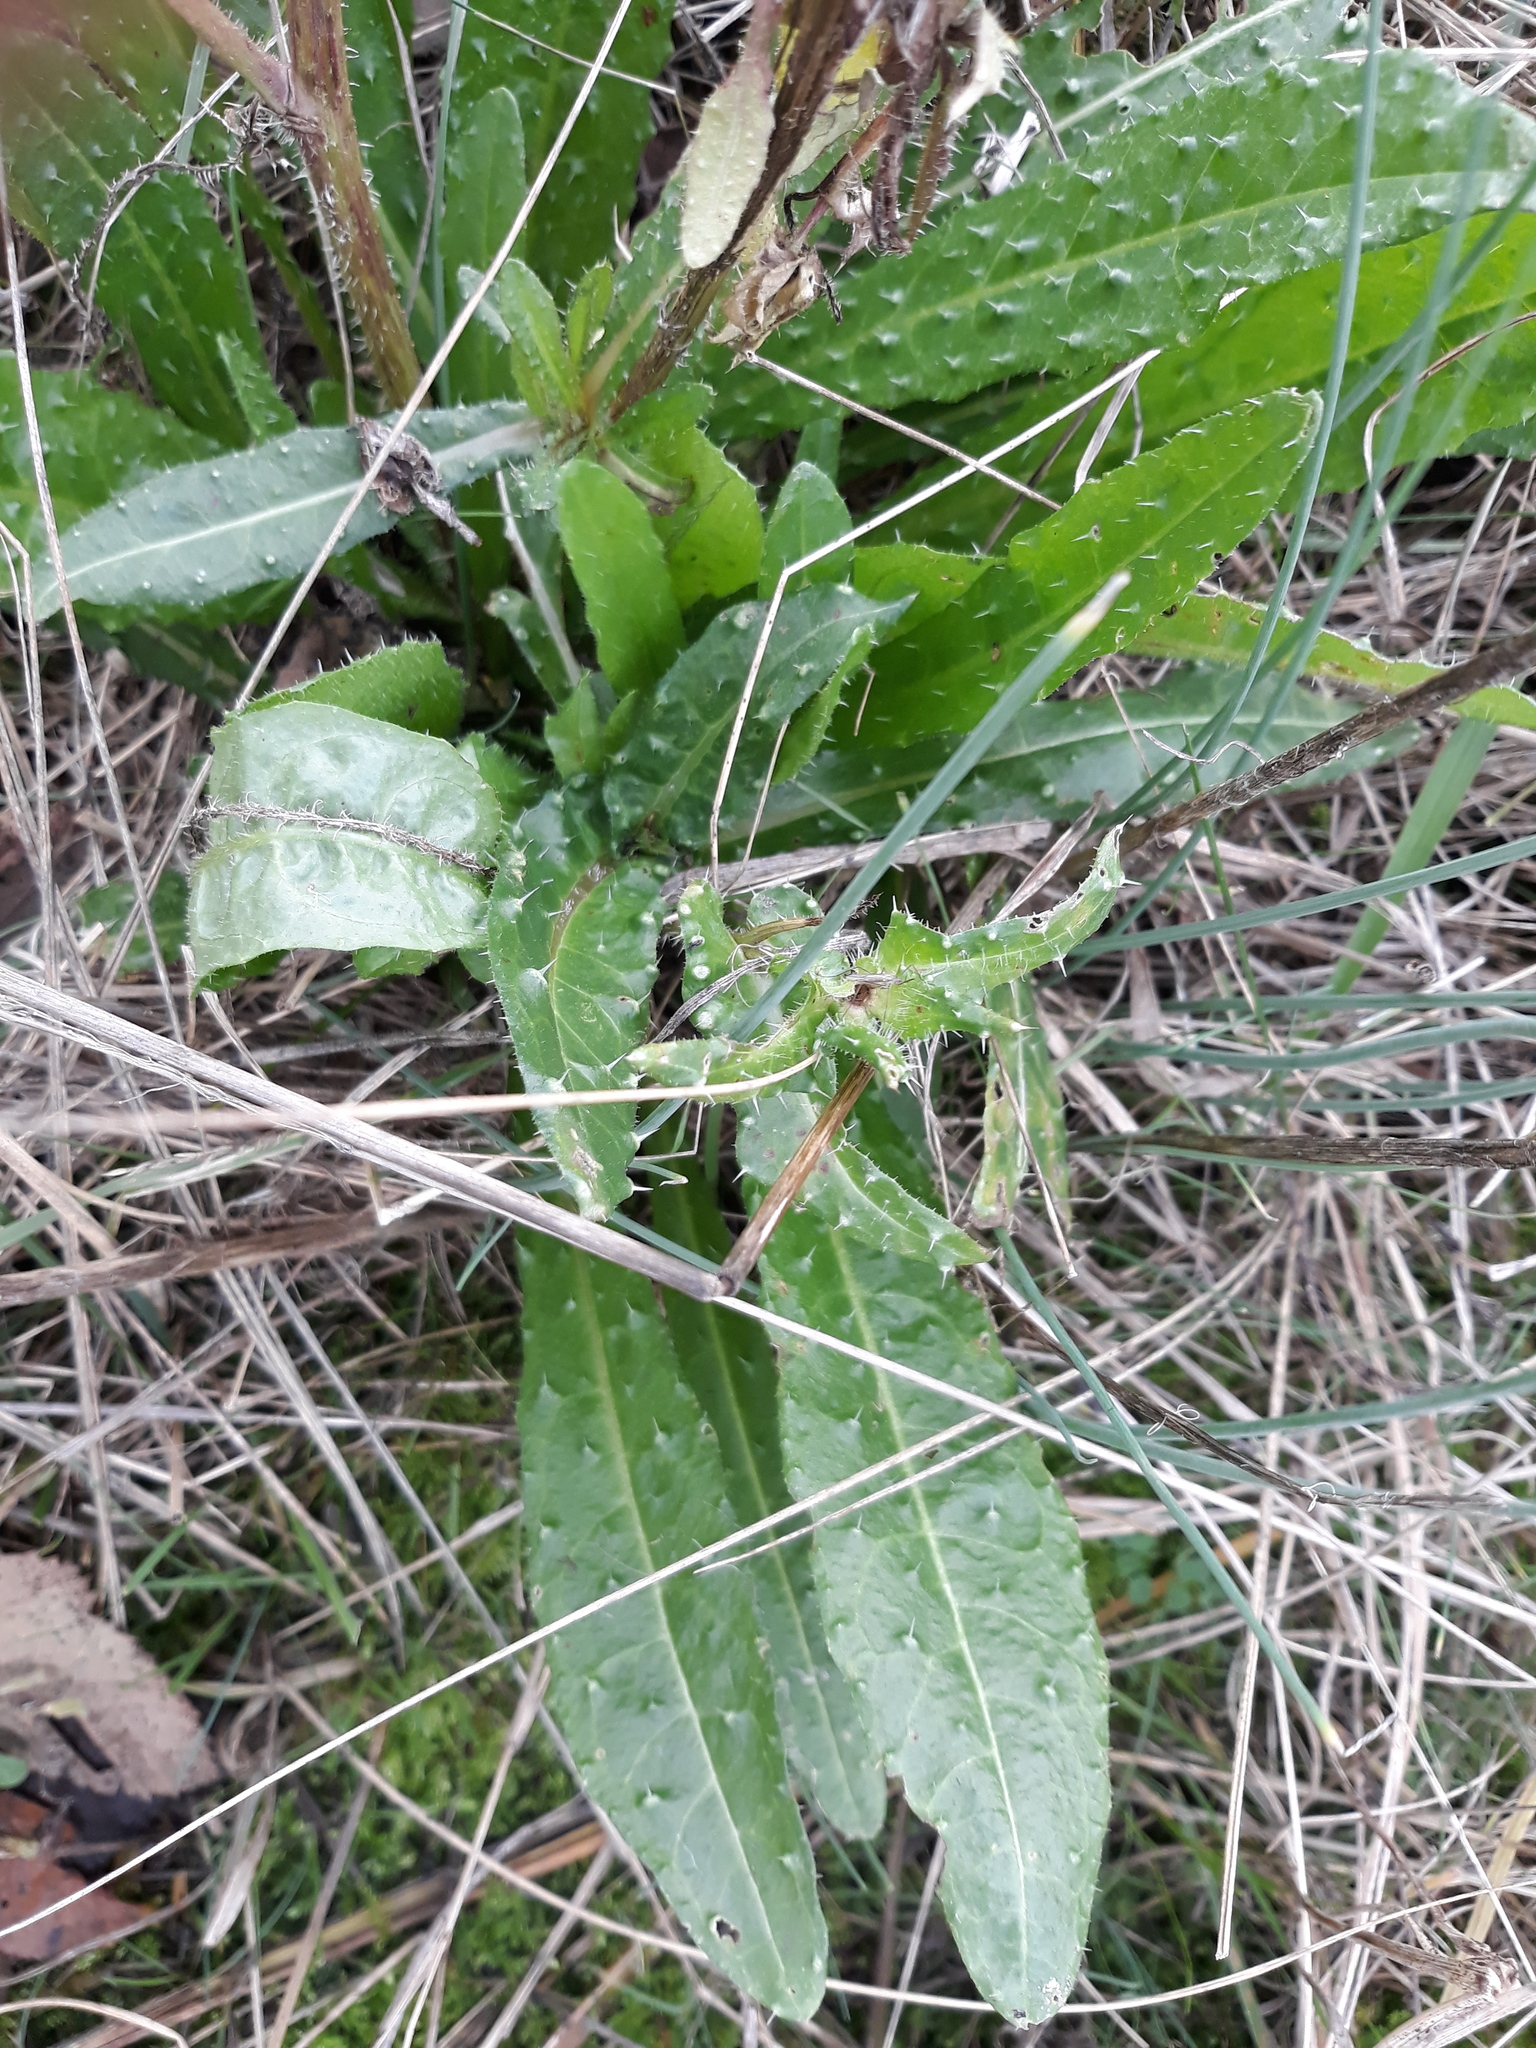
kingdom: Plantae
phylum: Tracheophyta
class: Magnoliopsida
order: Asterales
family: Asteraceae
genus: Helminthotheca
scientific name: Helminthotheca echioides
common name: Ox-tongue
